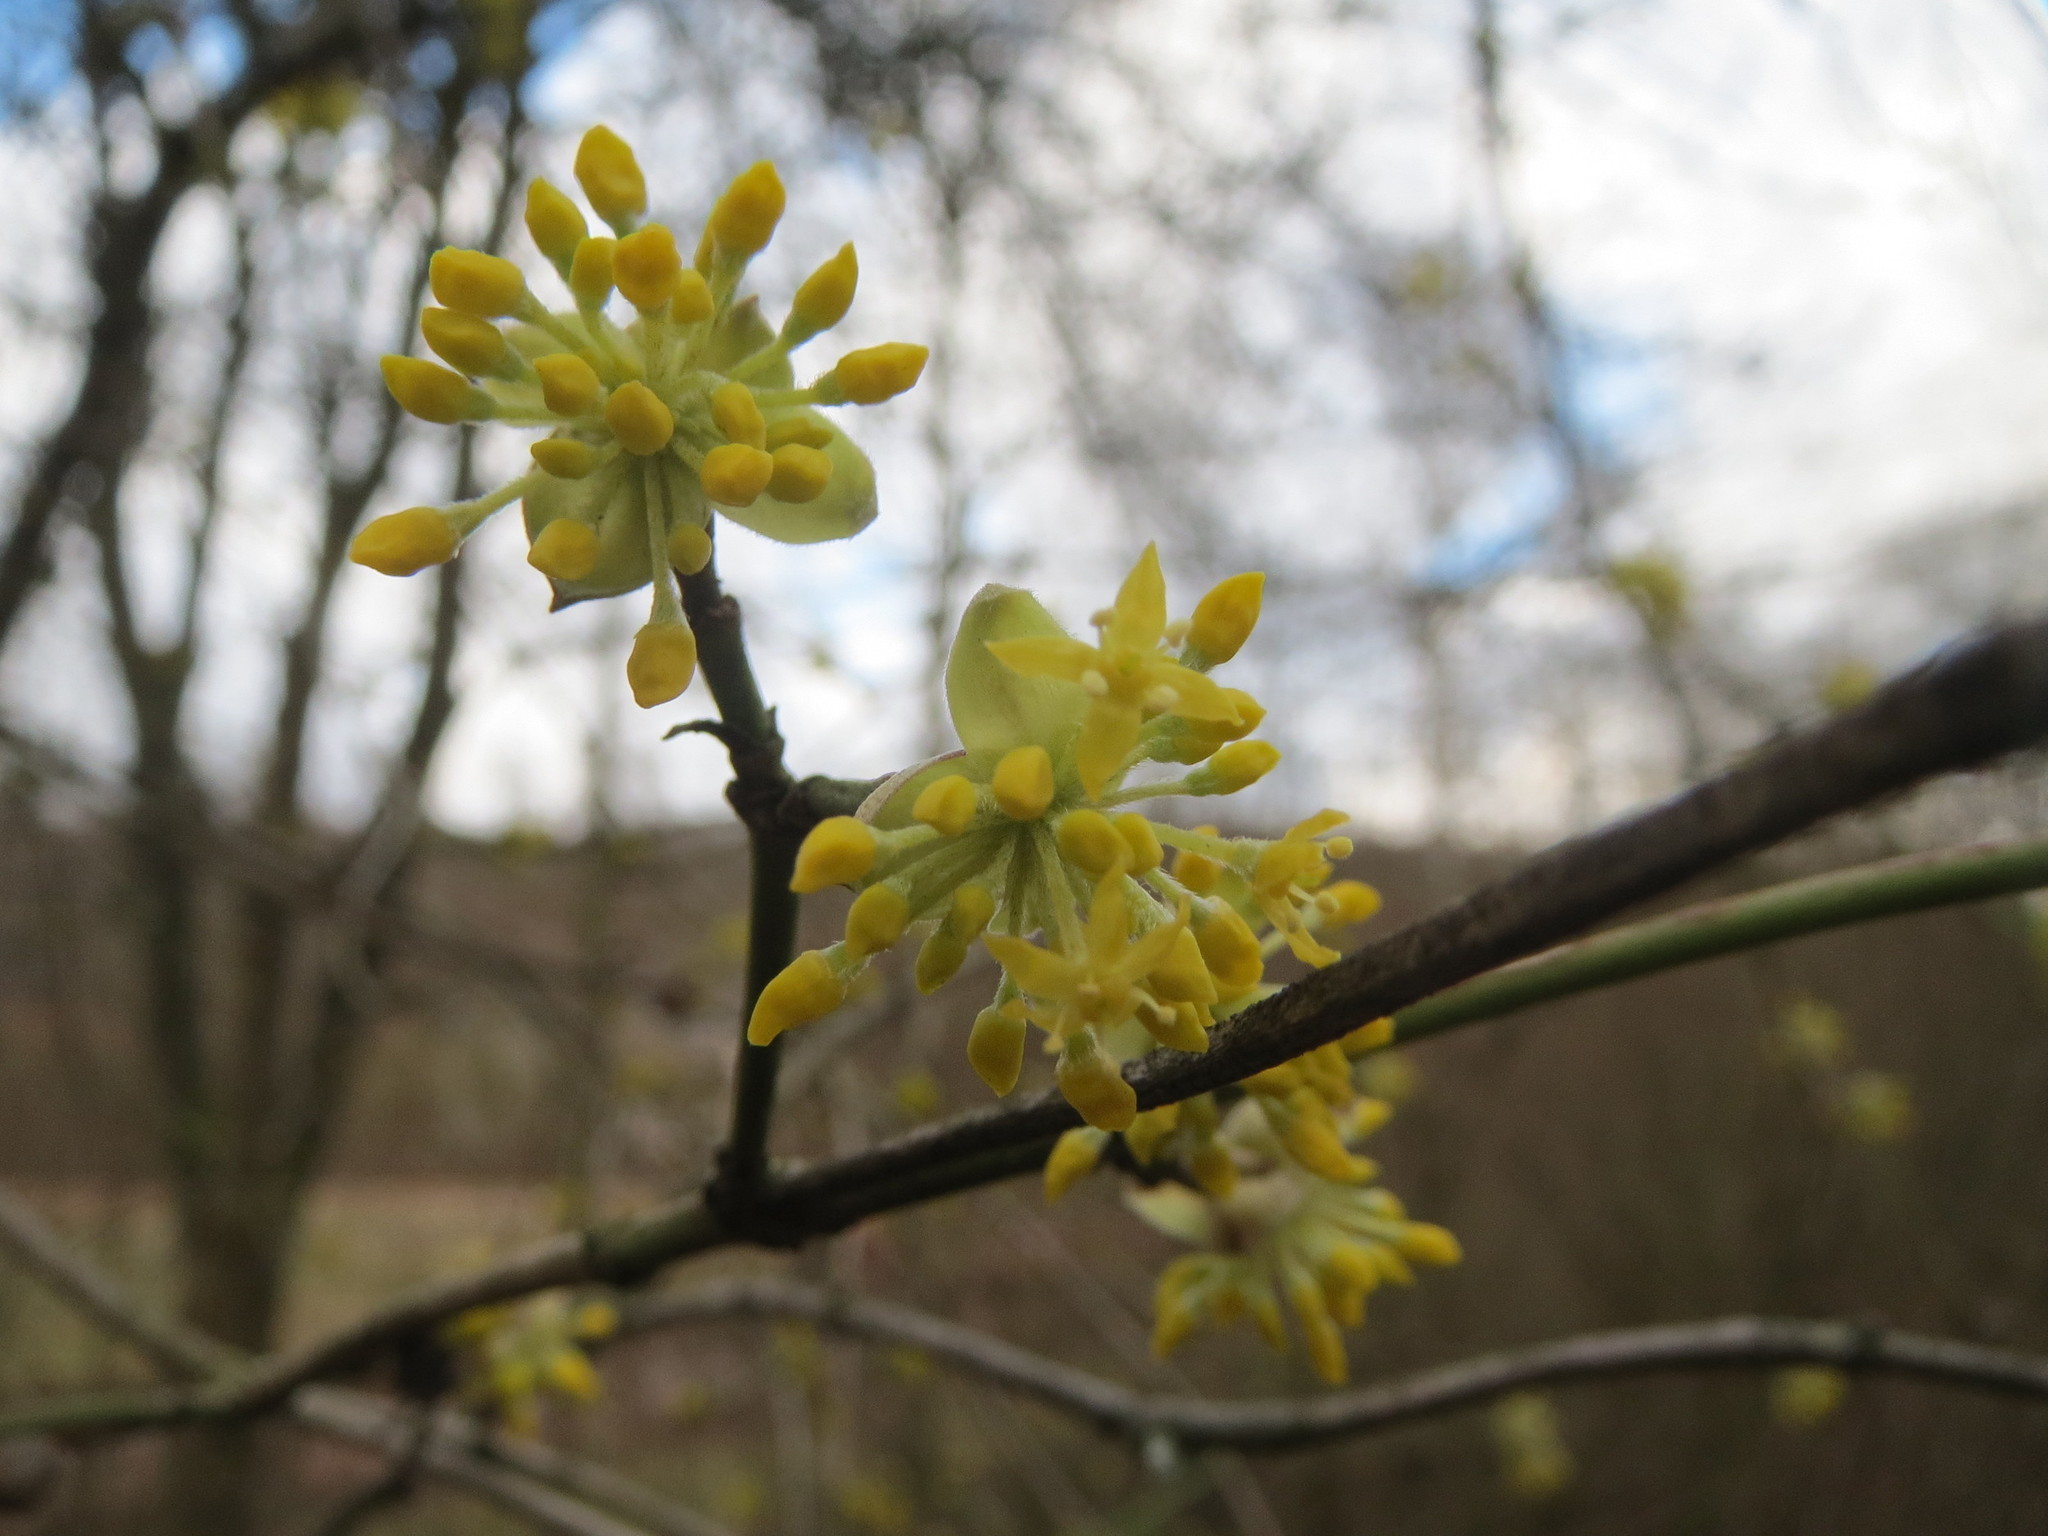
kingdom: Plantae
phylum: Tracheophyta
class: Magnoliopsida
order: Cornales
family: Cornaceae
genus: Cornus
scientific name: Cornus mas
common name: Cornelian-cherry
